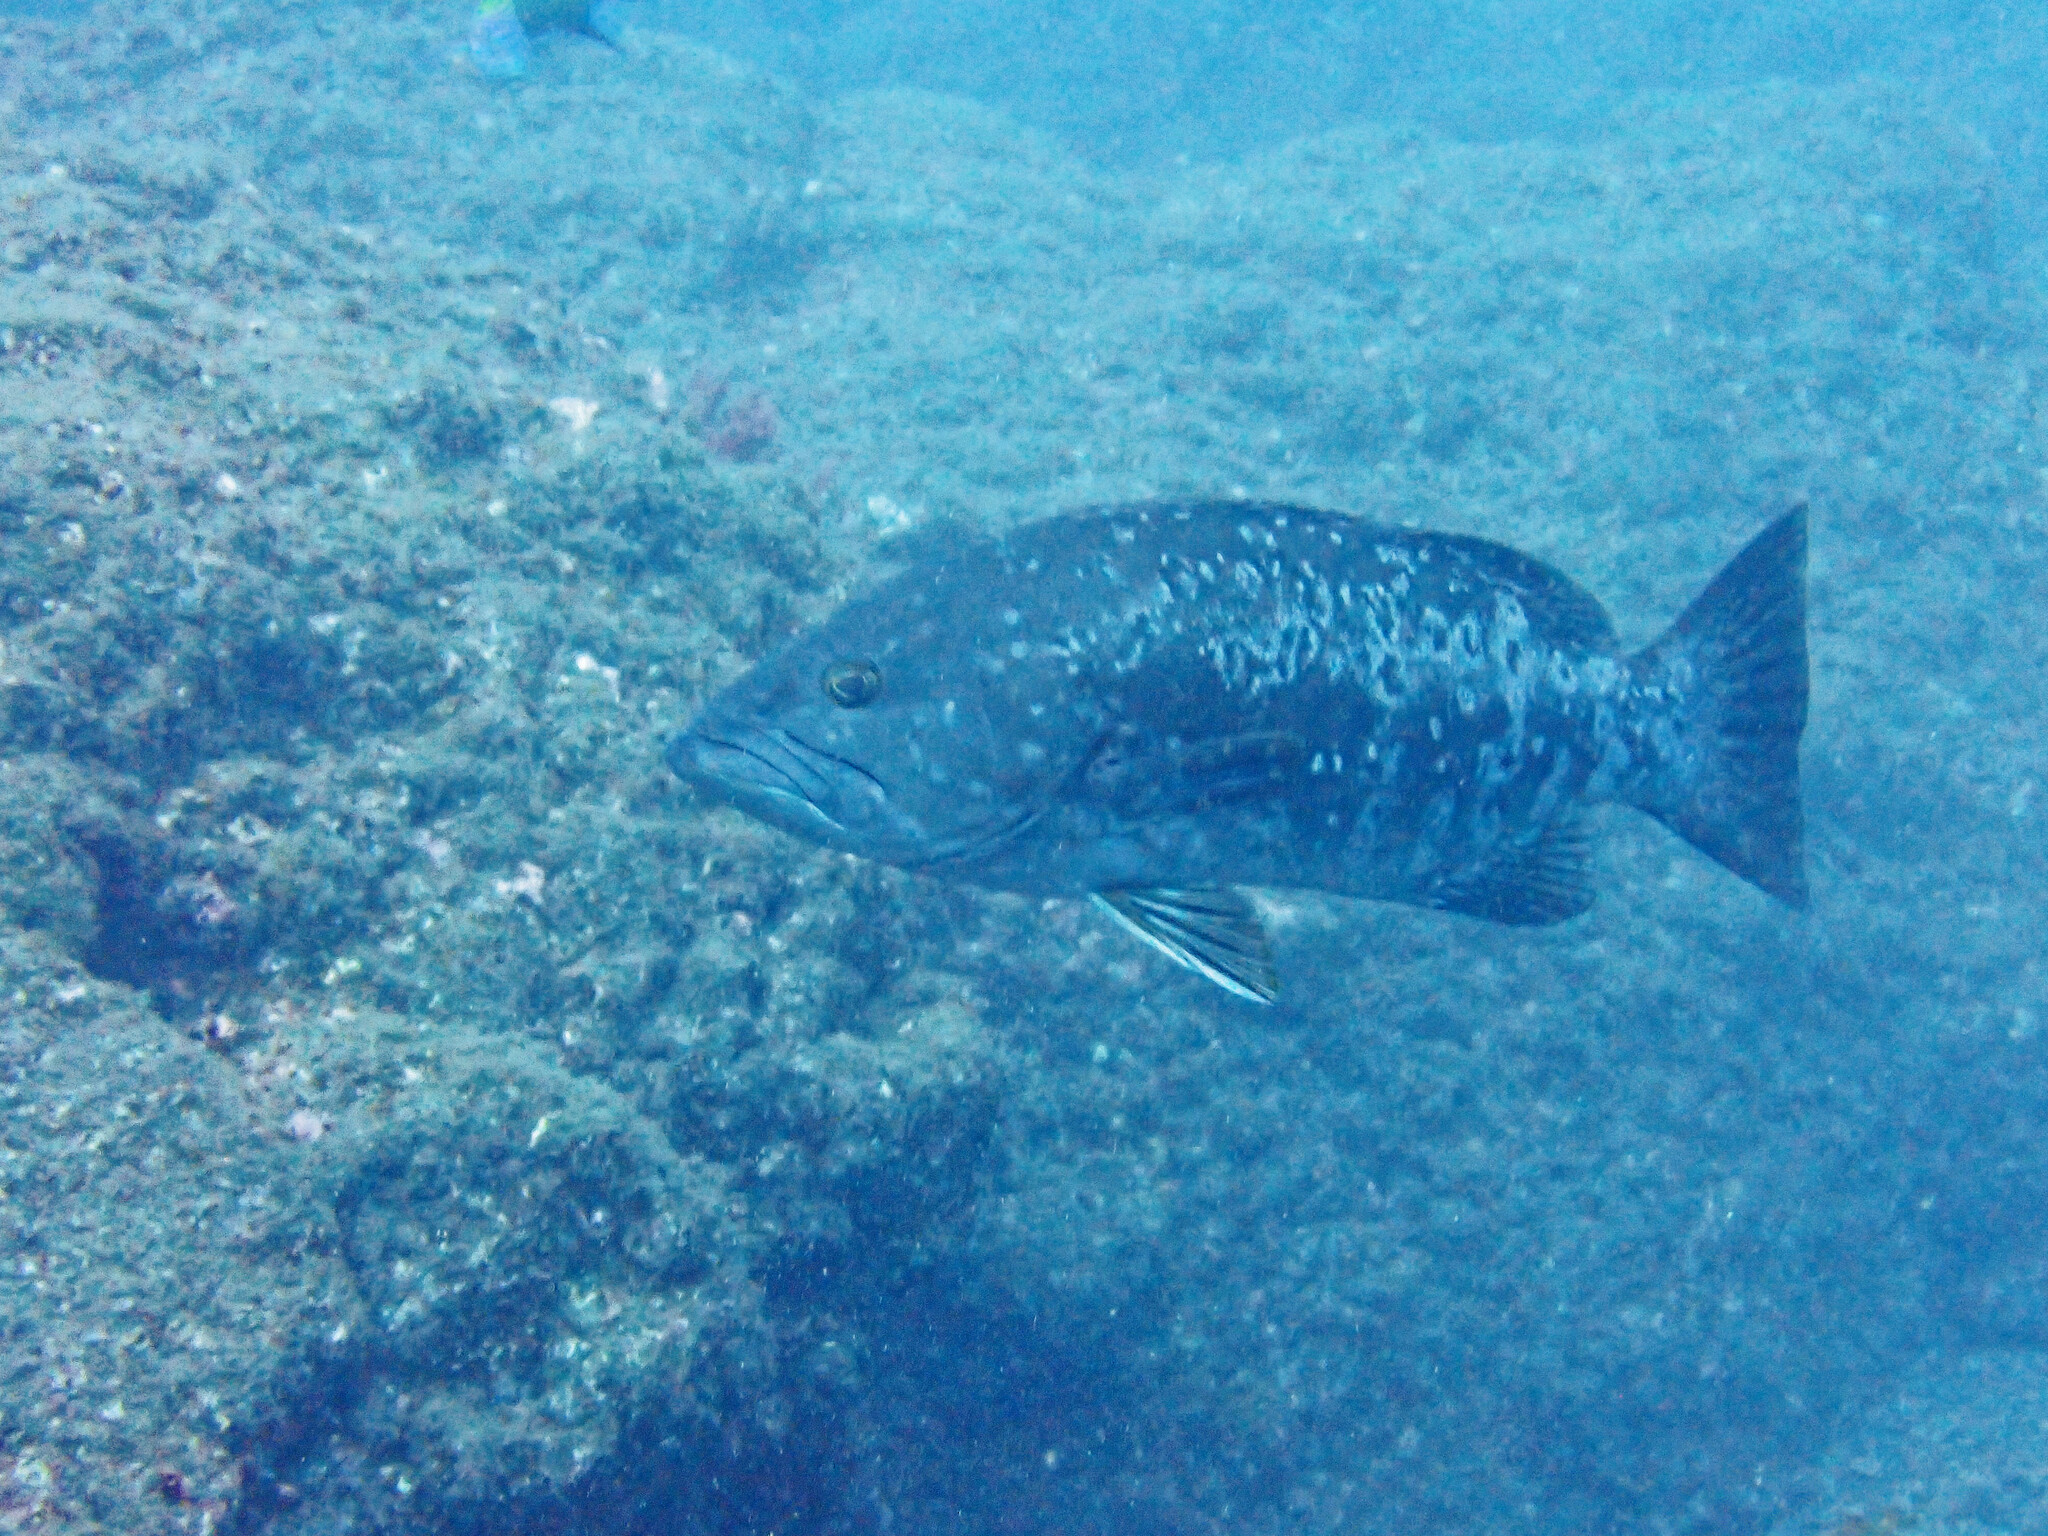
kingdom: Animalia
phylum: Chordata
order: Perciformes
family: Serranidae
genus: Mycteroperca
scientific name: Mycteroperca fusca
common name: Island grouper
